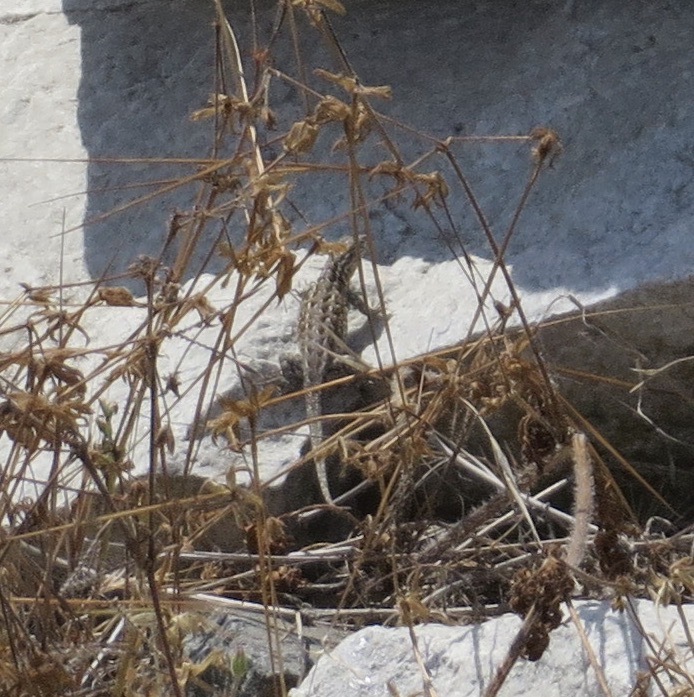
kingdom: Animalia
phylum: Chordata
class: Squamata
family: Phrynosomatidae
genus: Uta
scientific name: Uta stansburiana
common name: Side-blotched lizard
